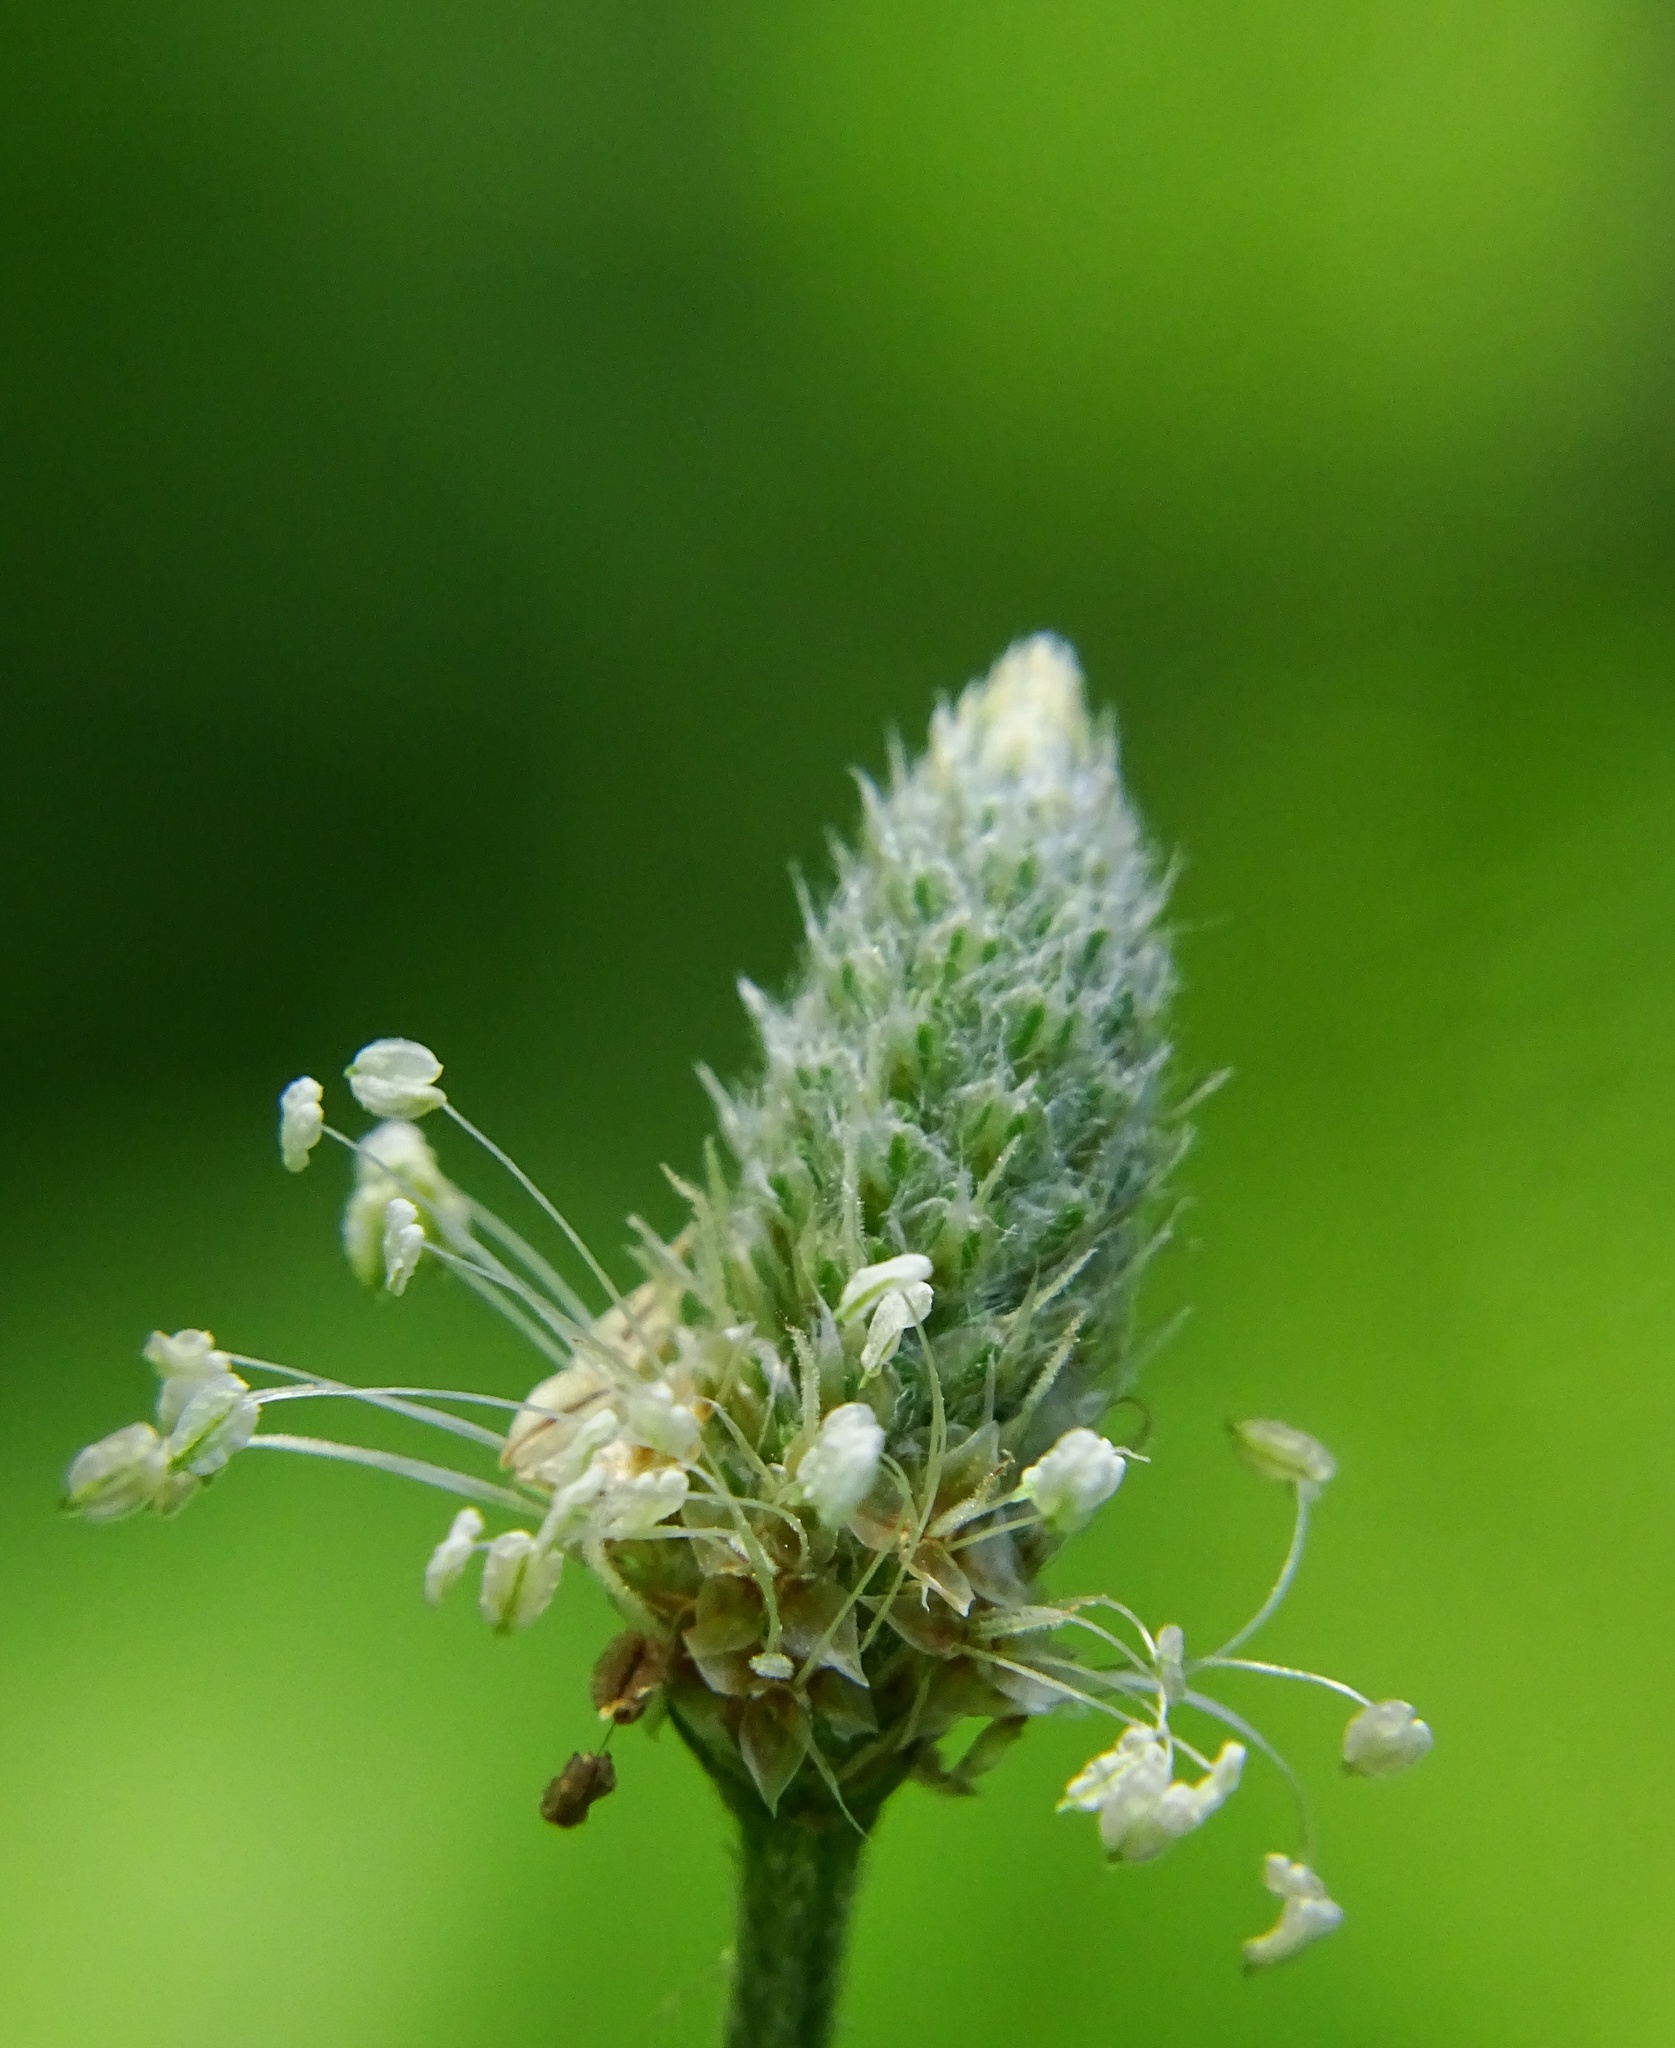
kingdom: Plantae
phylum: Tracheophyta
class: Magnoliopsida
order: Lamiales
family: Plantaginaceae
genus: Plantago
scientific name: Plantago lanceolata
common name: Ribwort plantain
